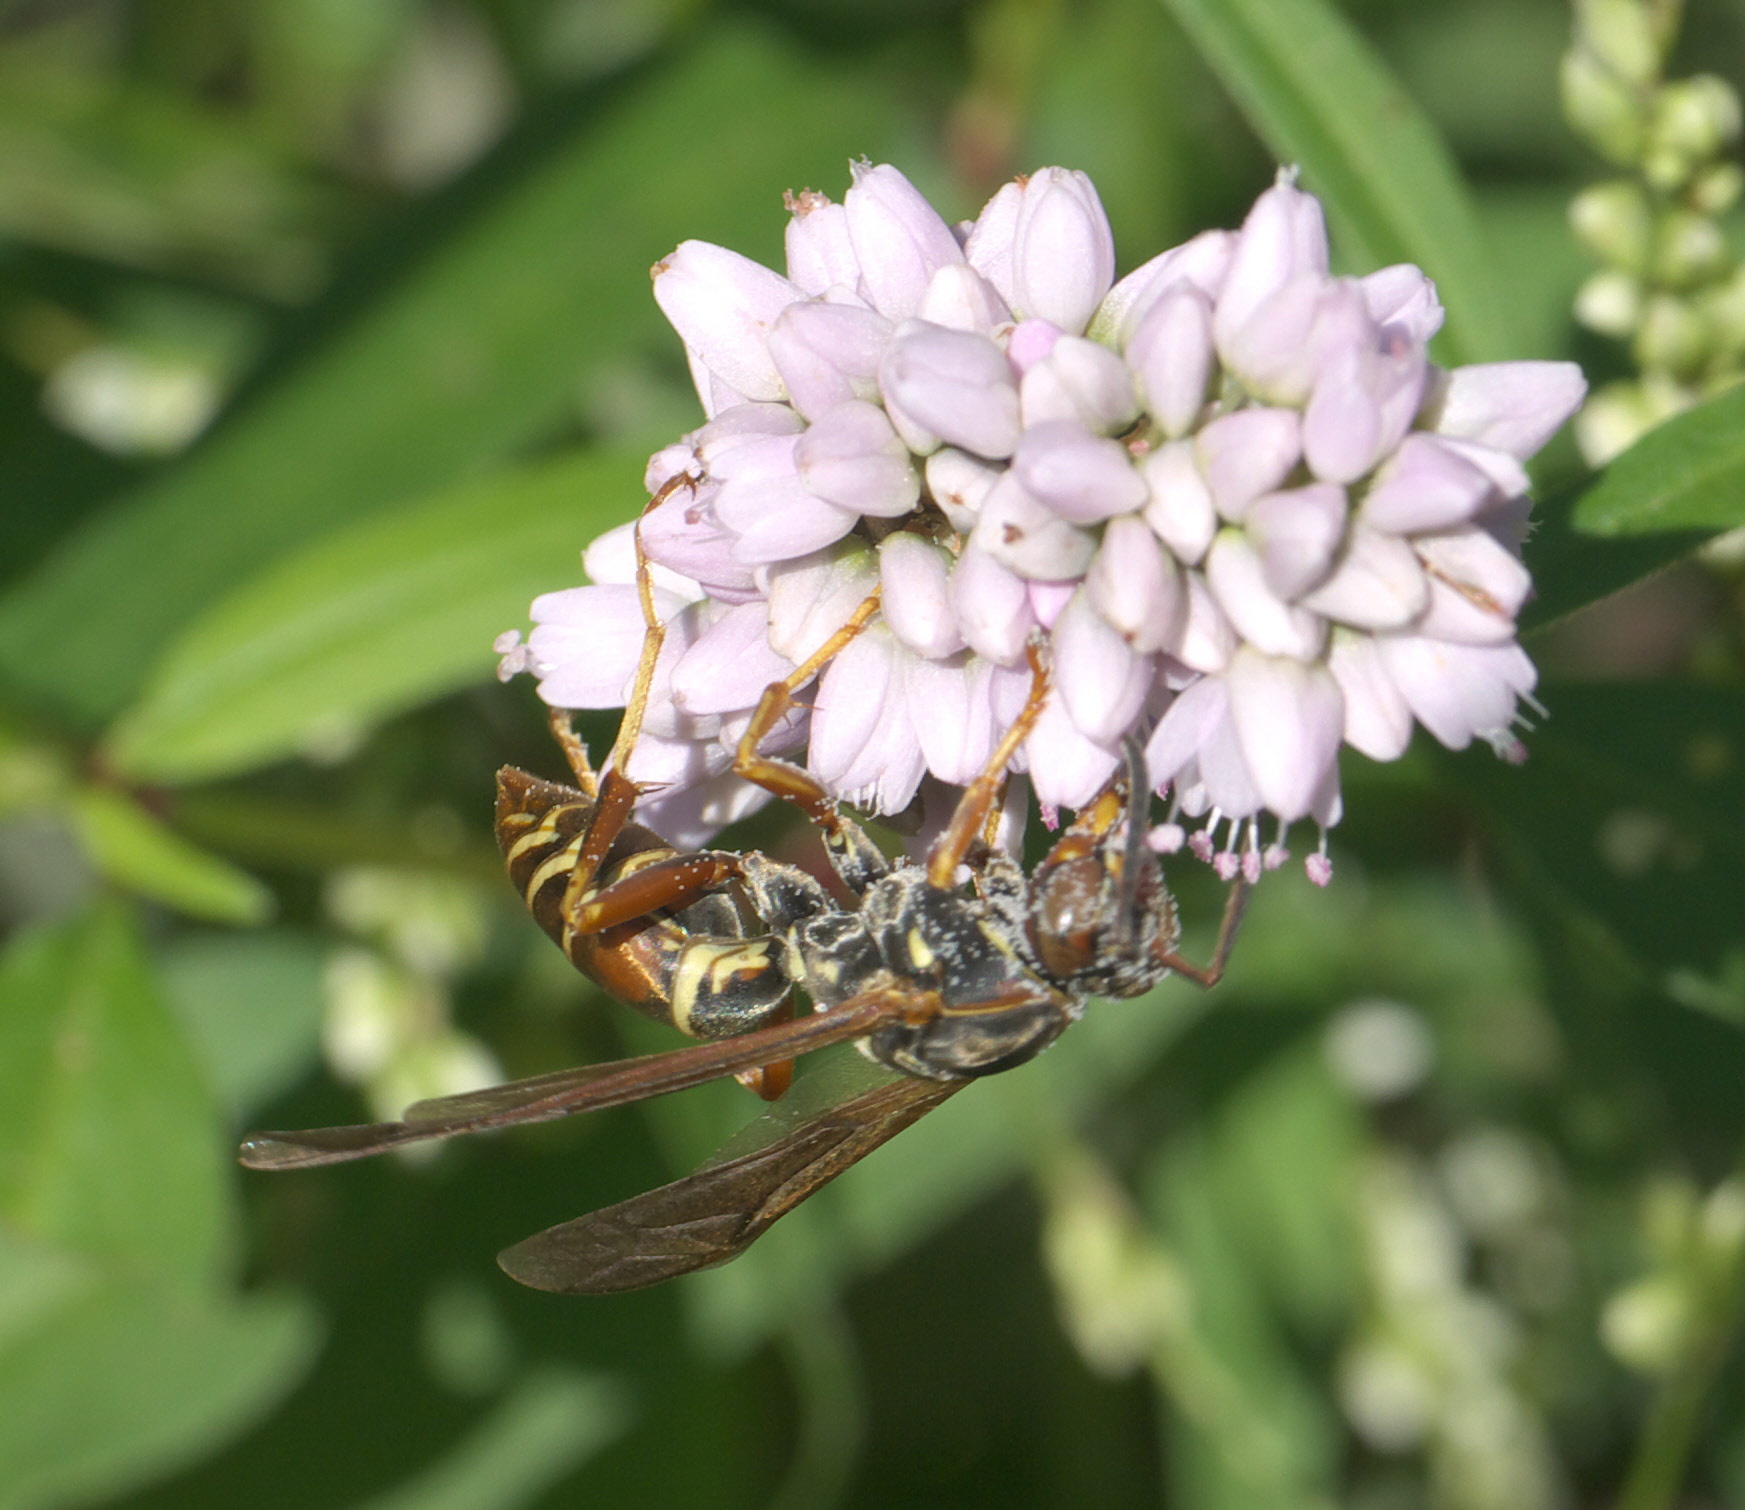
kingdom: Animalia
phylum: Arthropoda
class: Insecta
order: Hymenoptera
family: Eumenidae
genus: Polistes
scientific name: Polistes fuscatus
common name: Dark paper wasp
